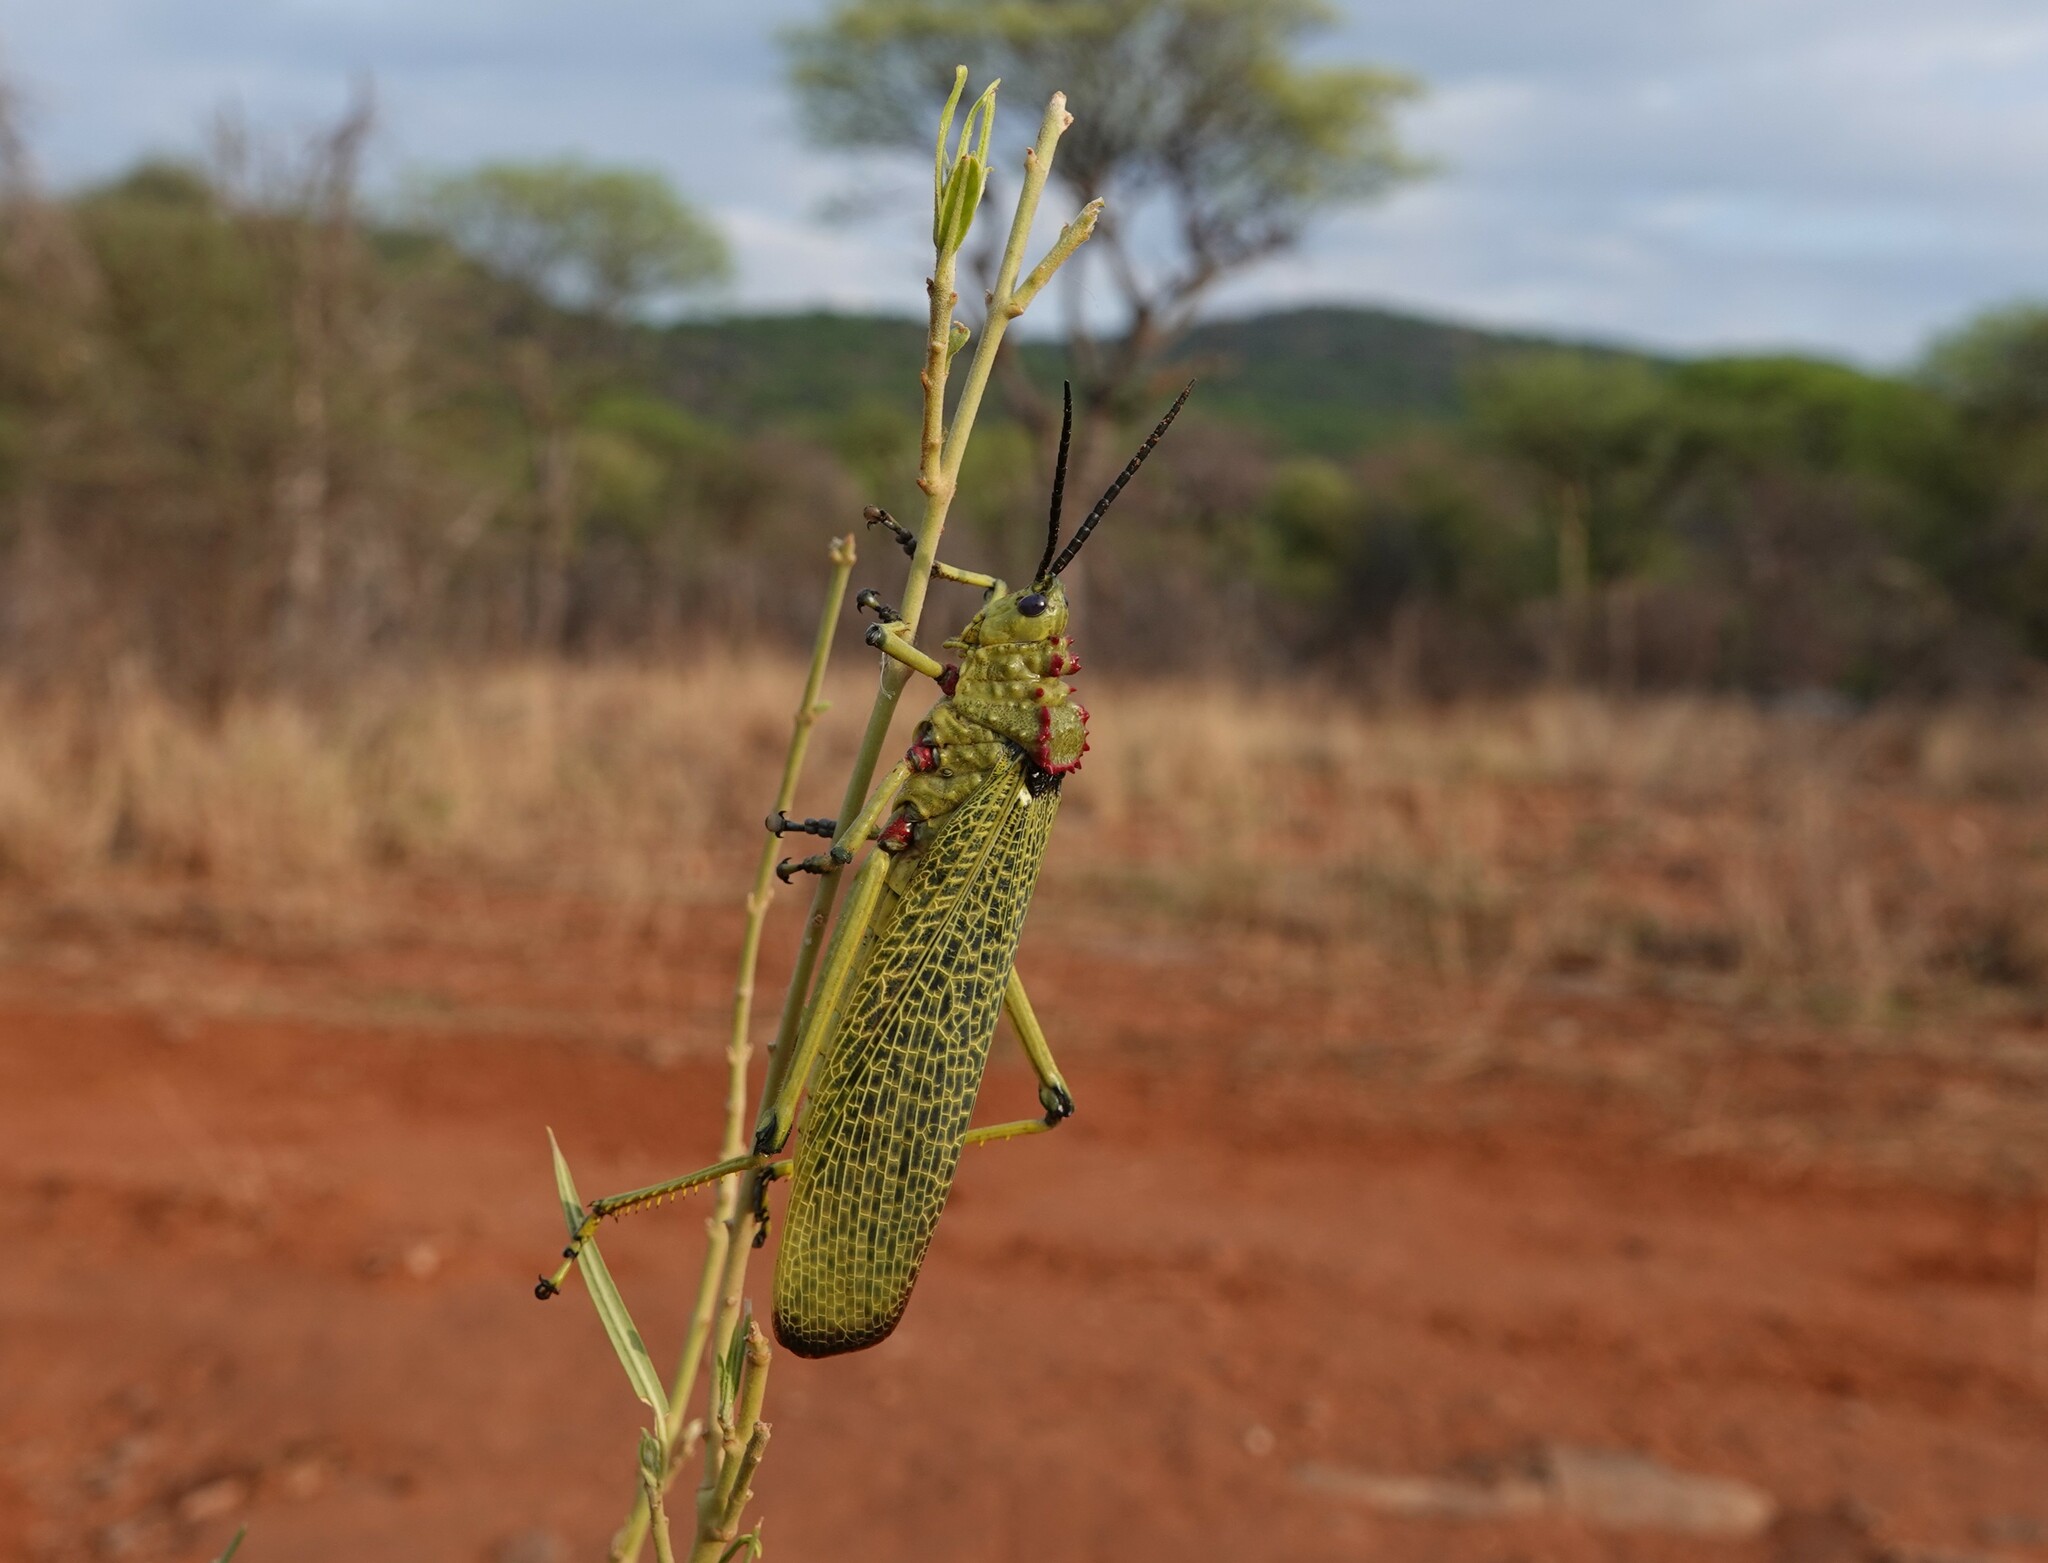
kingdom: Animalia
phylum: Arthropoda
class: Insecta
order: Orthoptera
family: Pyrgomorphidae
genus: Phymateus
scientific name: Phymateus viridipes
